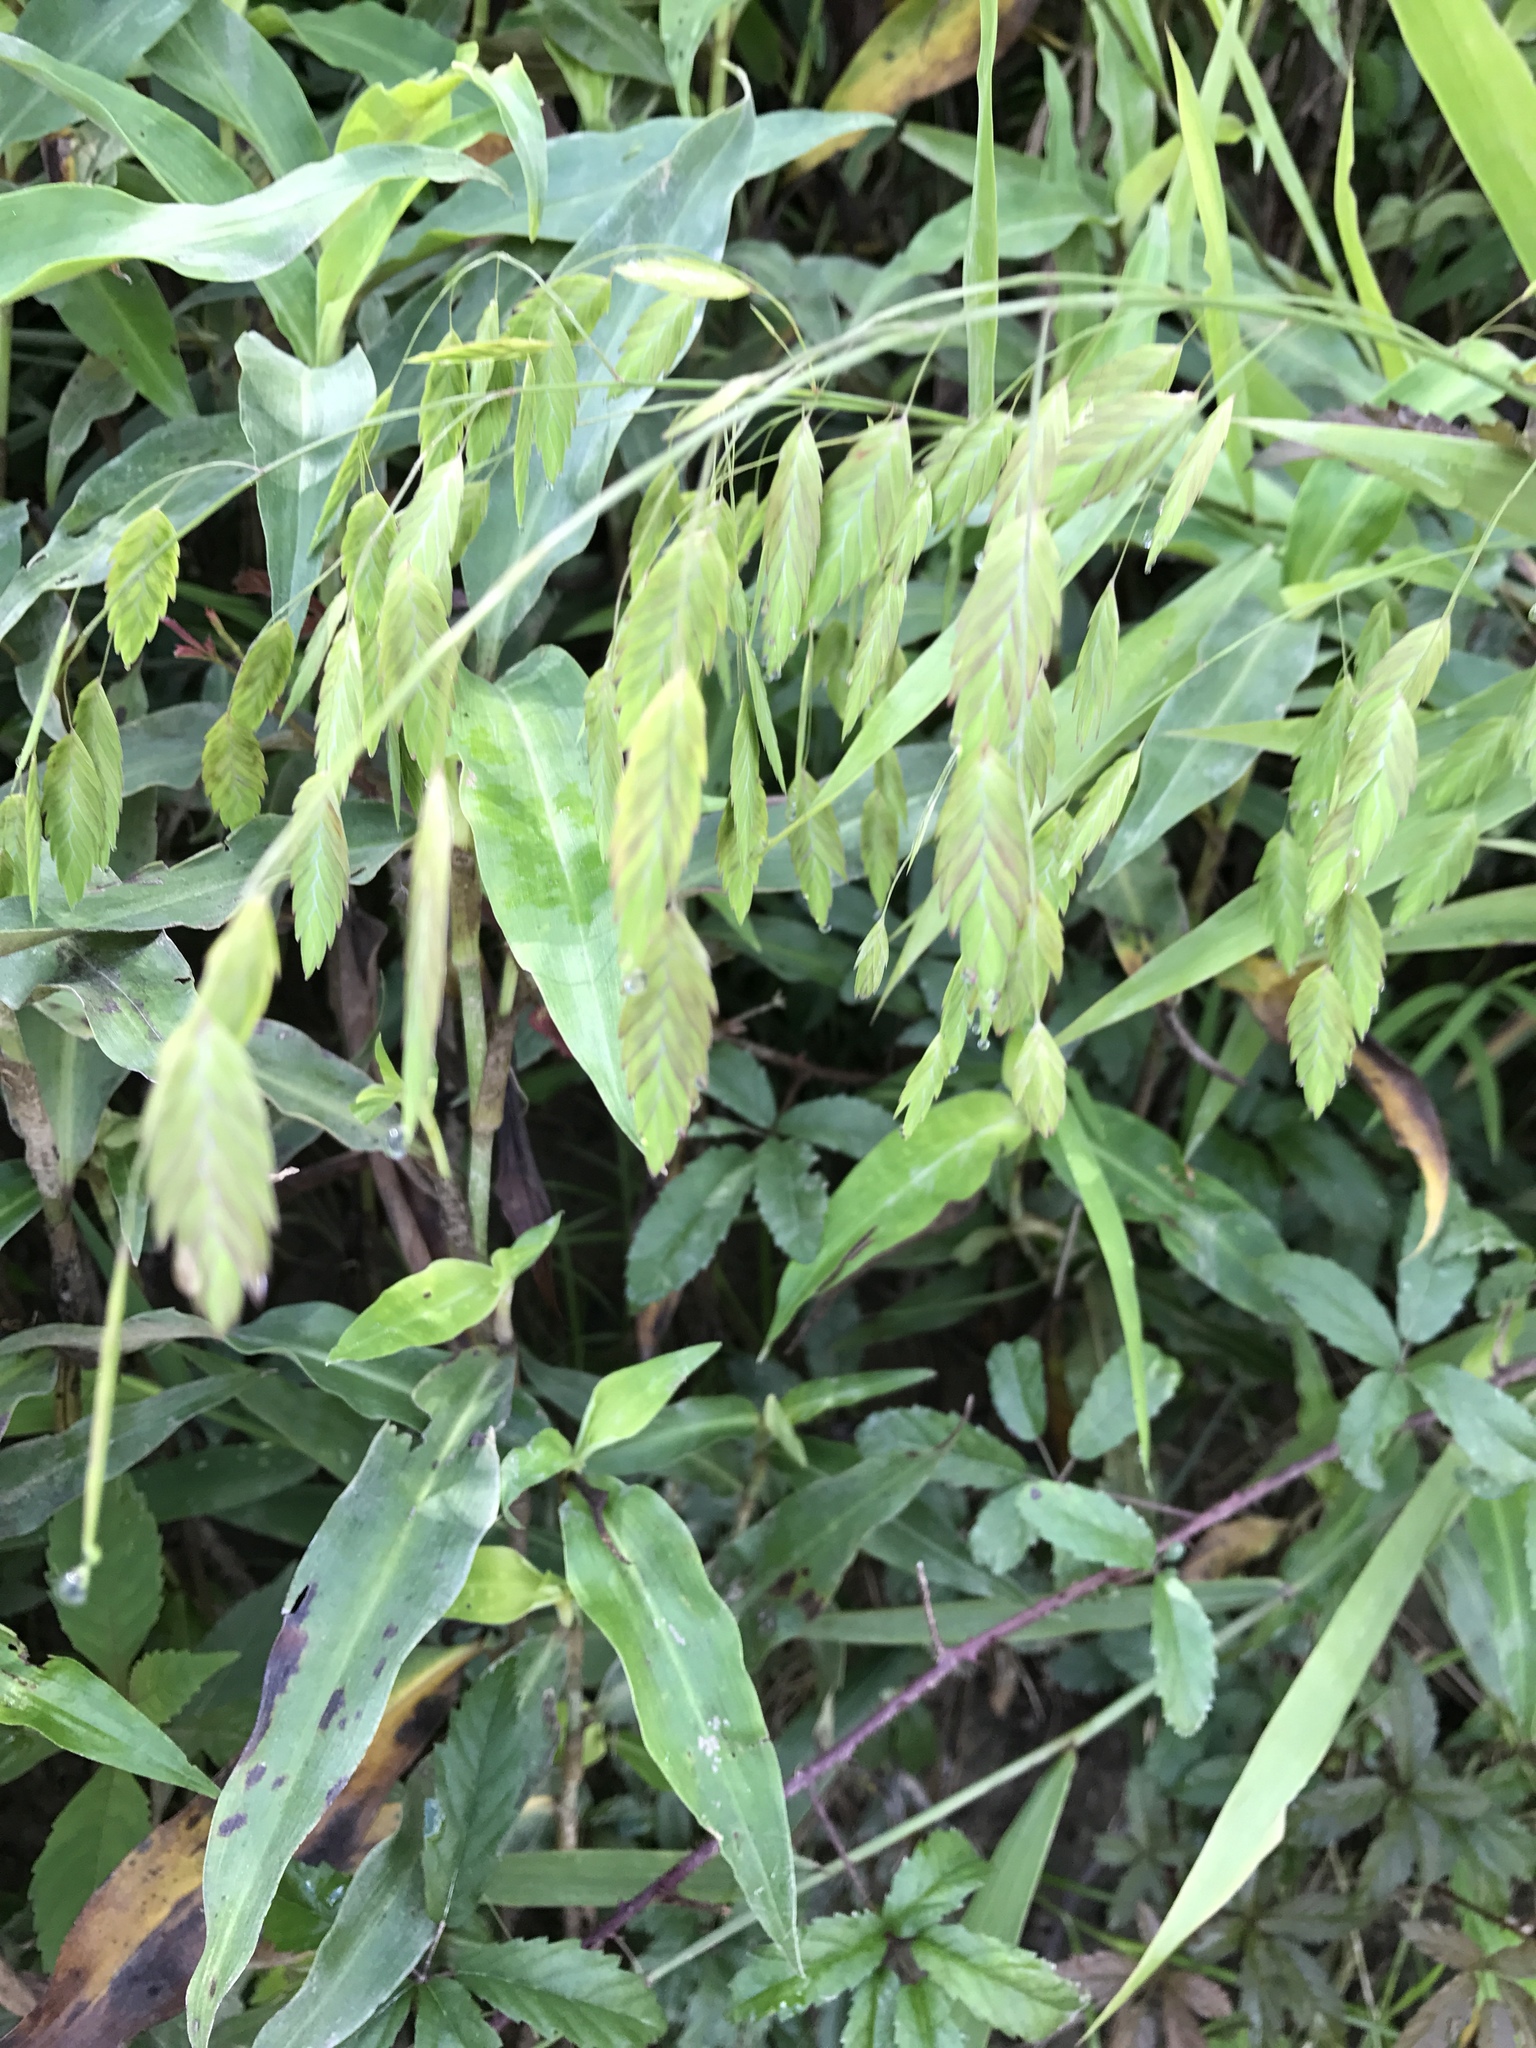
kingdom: Plantae
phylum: Tracheophyta
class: Liliopsida
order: Poales
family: Poaceae
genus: Chasmanthium
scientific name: Chasmanthium latifolium
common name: Broad-leaved chasmanthium
